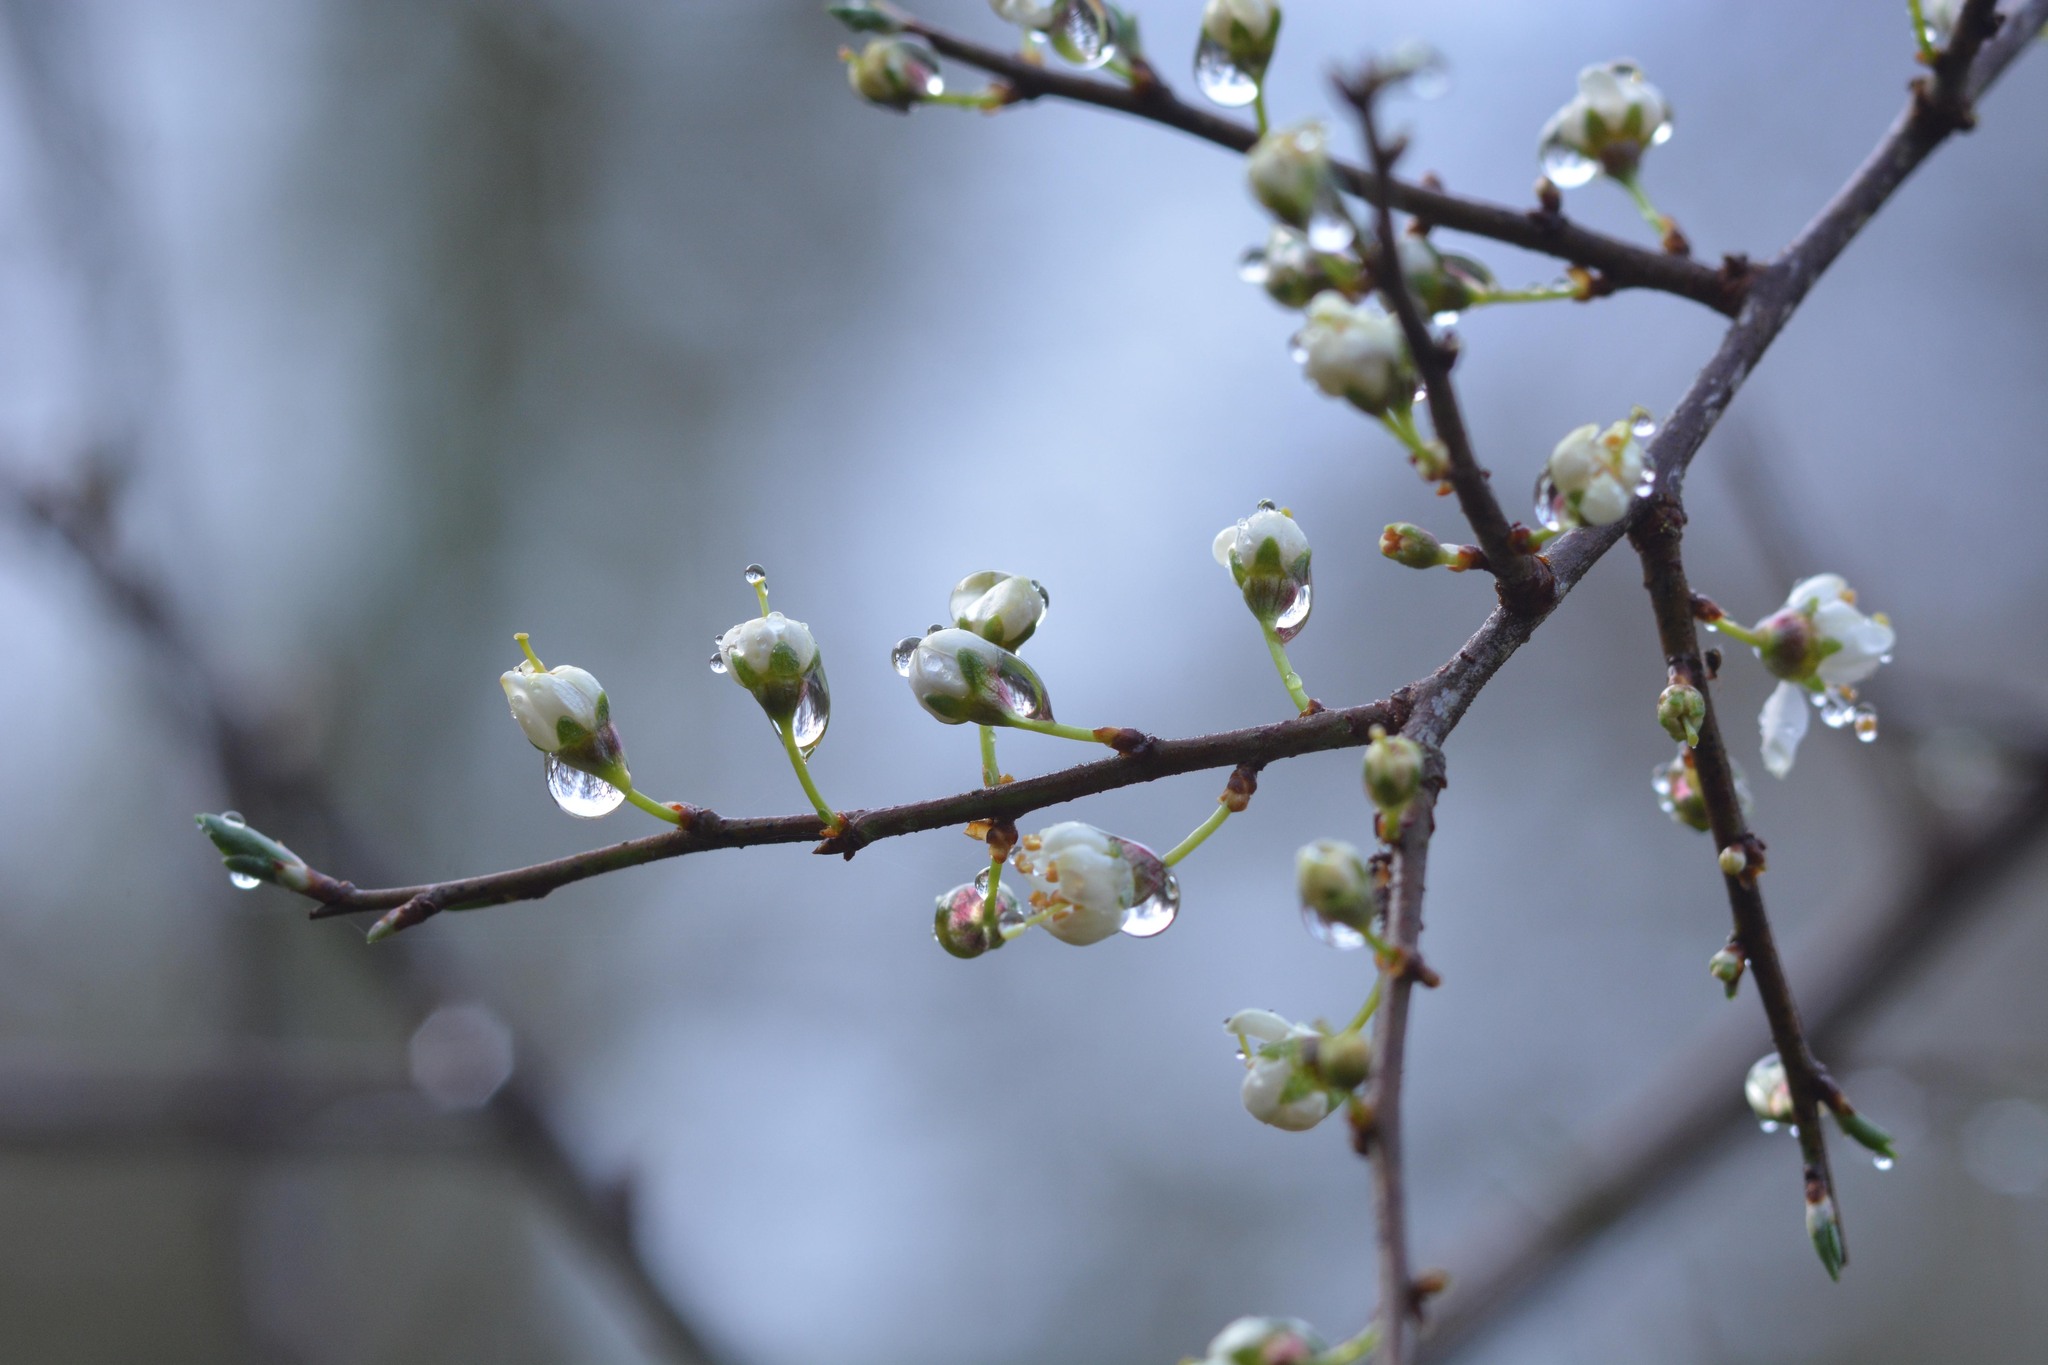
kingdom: Plantae
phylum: Tracheophyta
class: Magnoliopsida
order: Rosales
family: Rosaceae
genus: Prunus
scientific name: Prunus spinosa
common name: Blackthorn
